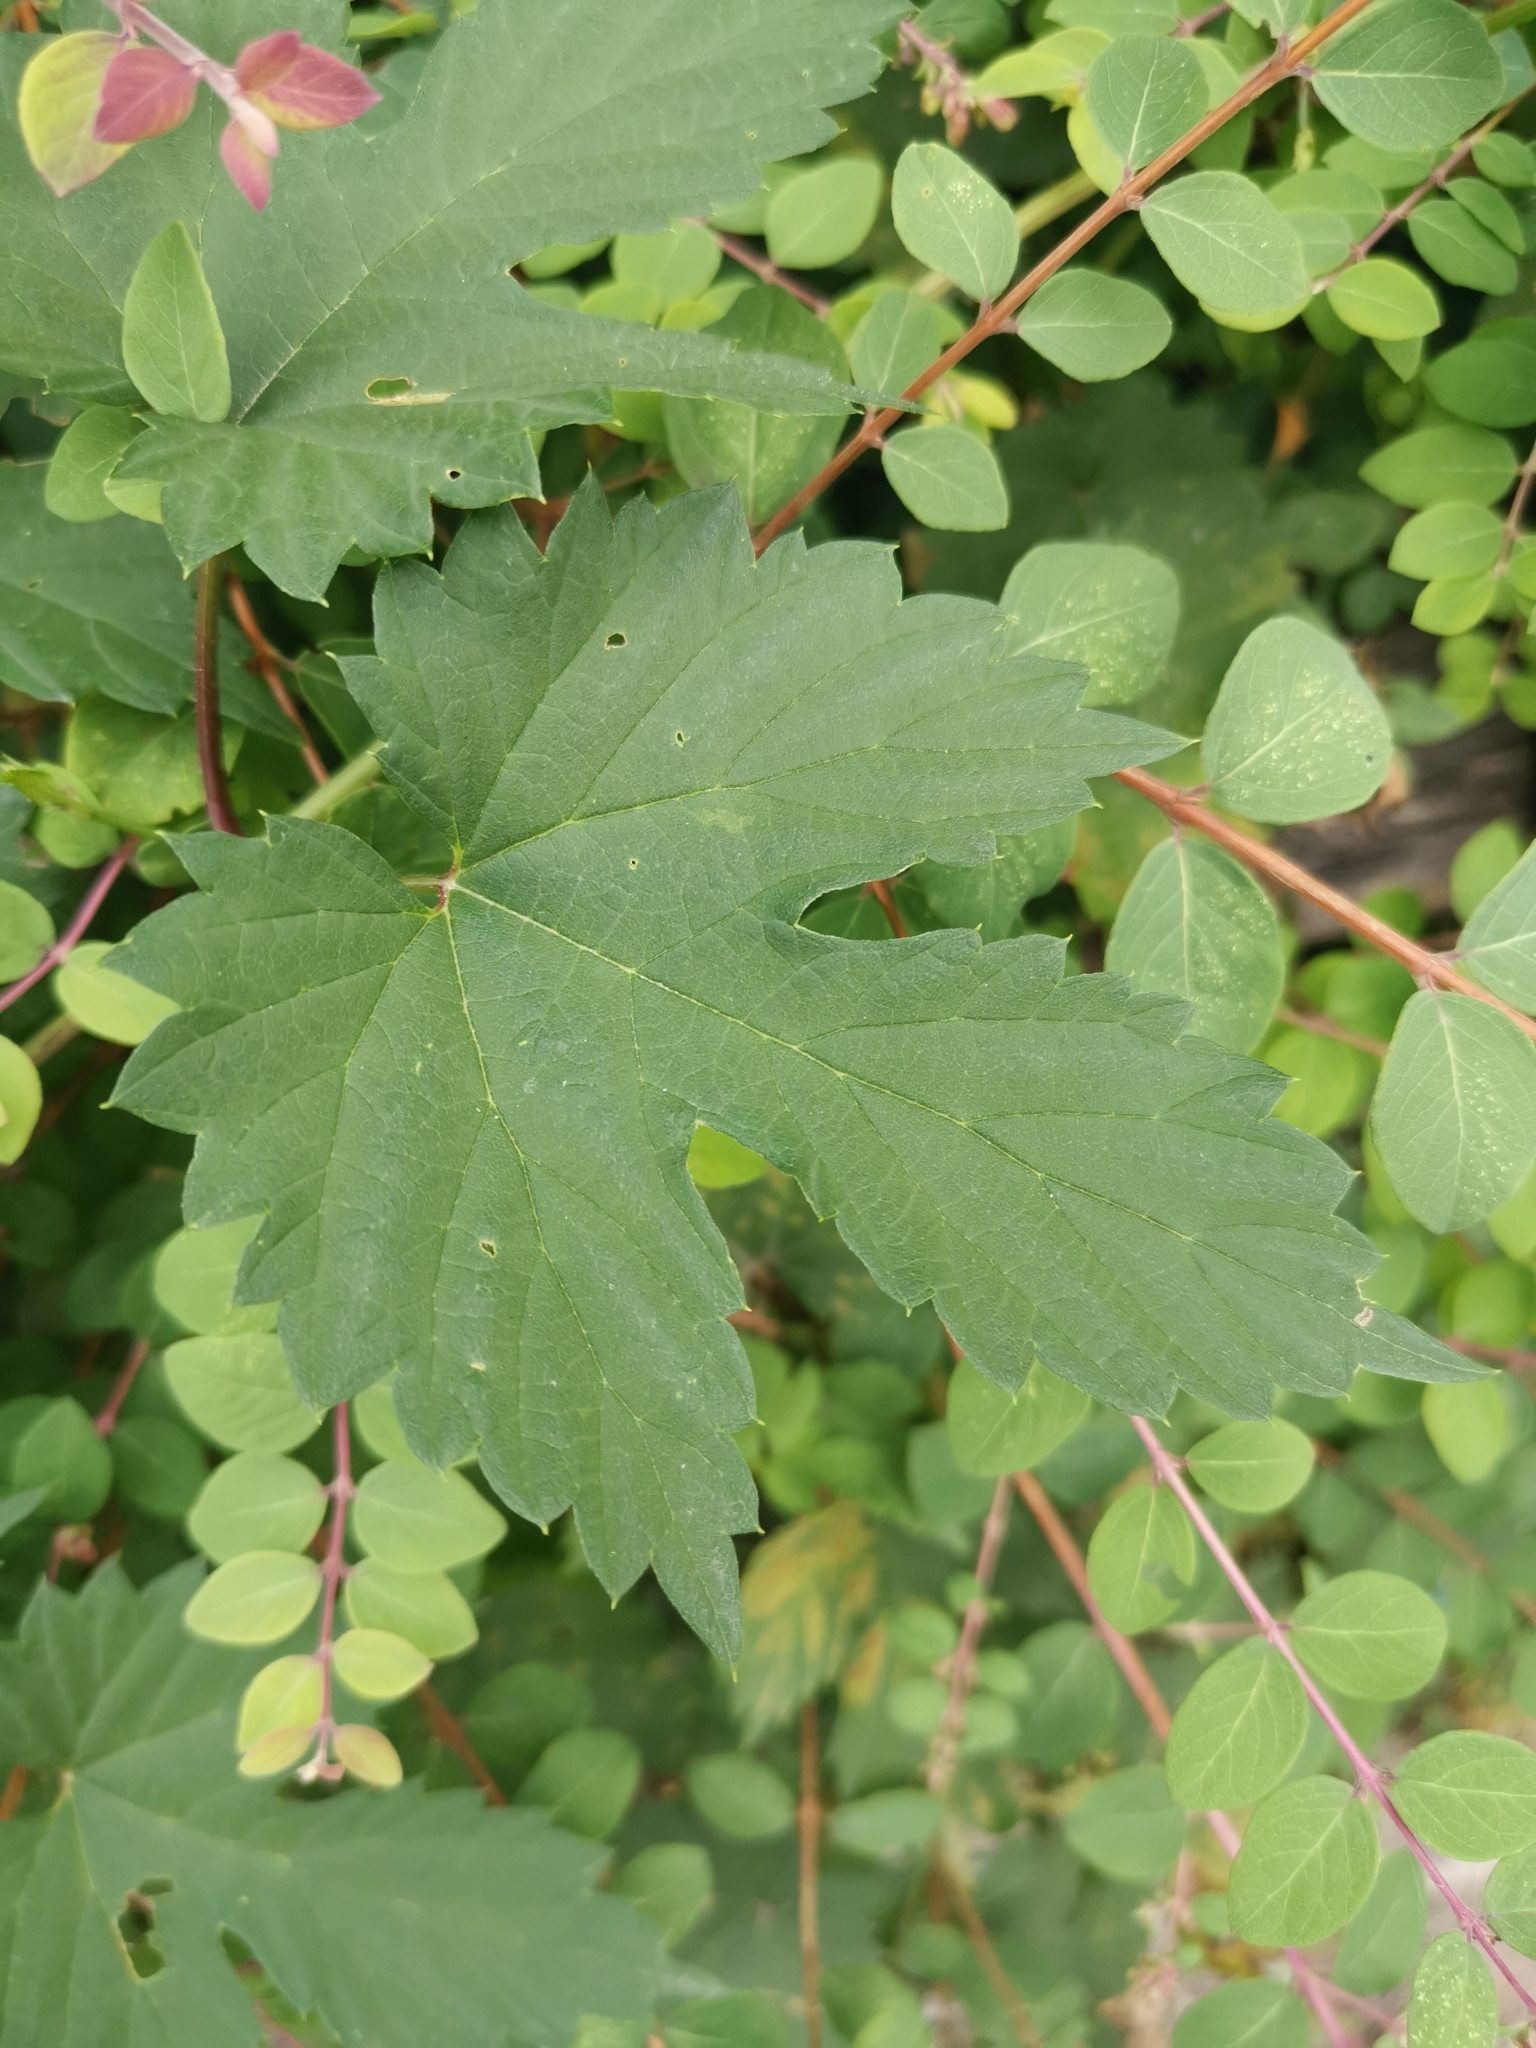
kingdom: Plantae
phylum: Tracheophyta
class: Magnoliopsida
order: Rosales
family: Cannabaceae
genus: Humulus
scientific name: Humulus lupulus
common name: Hop
